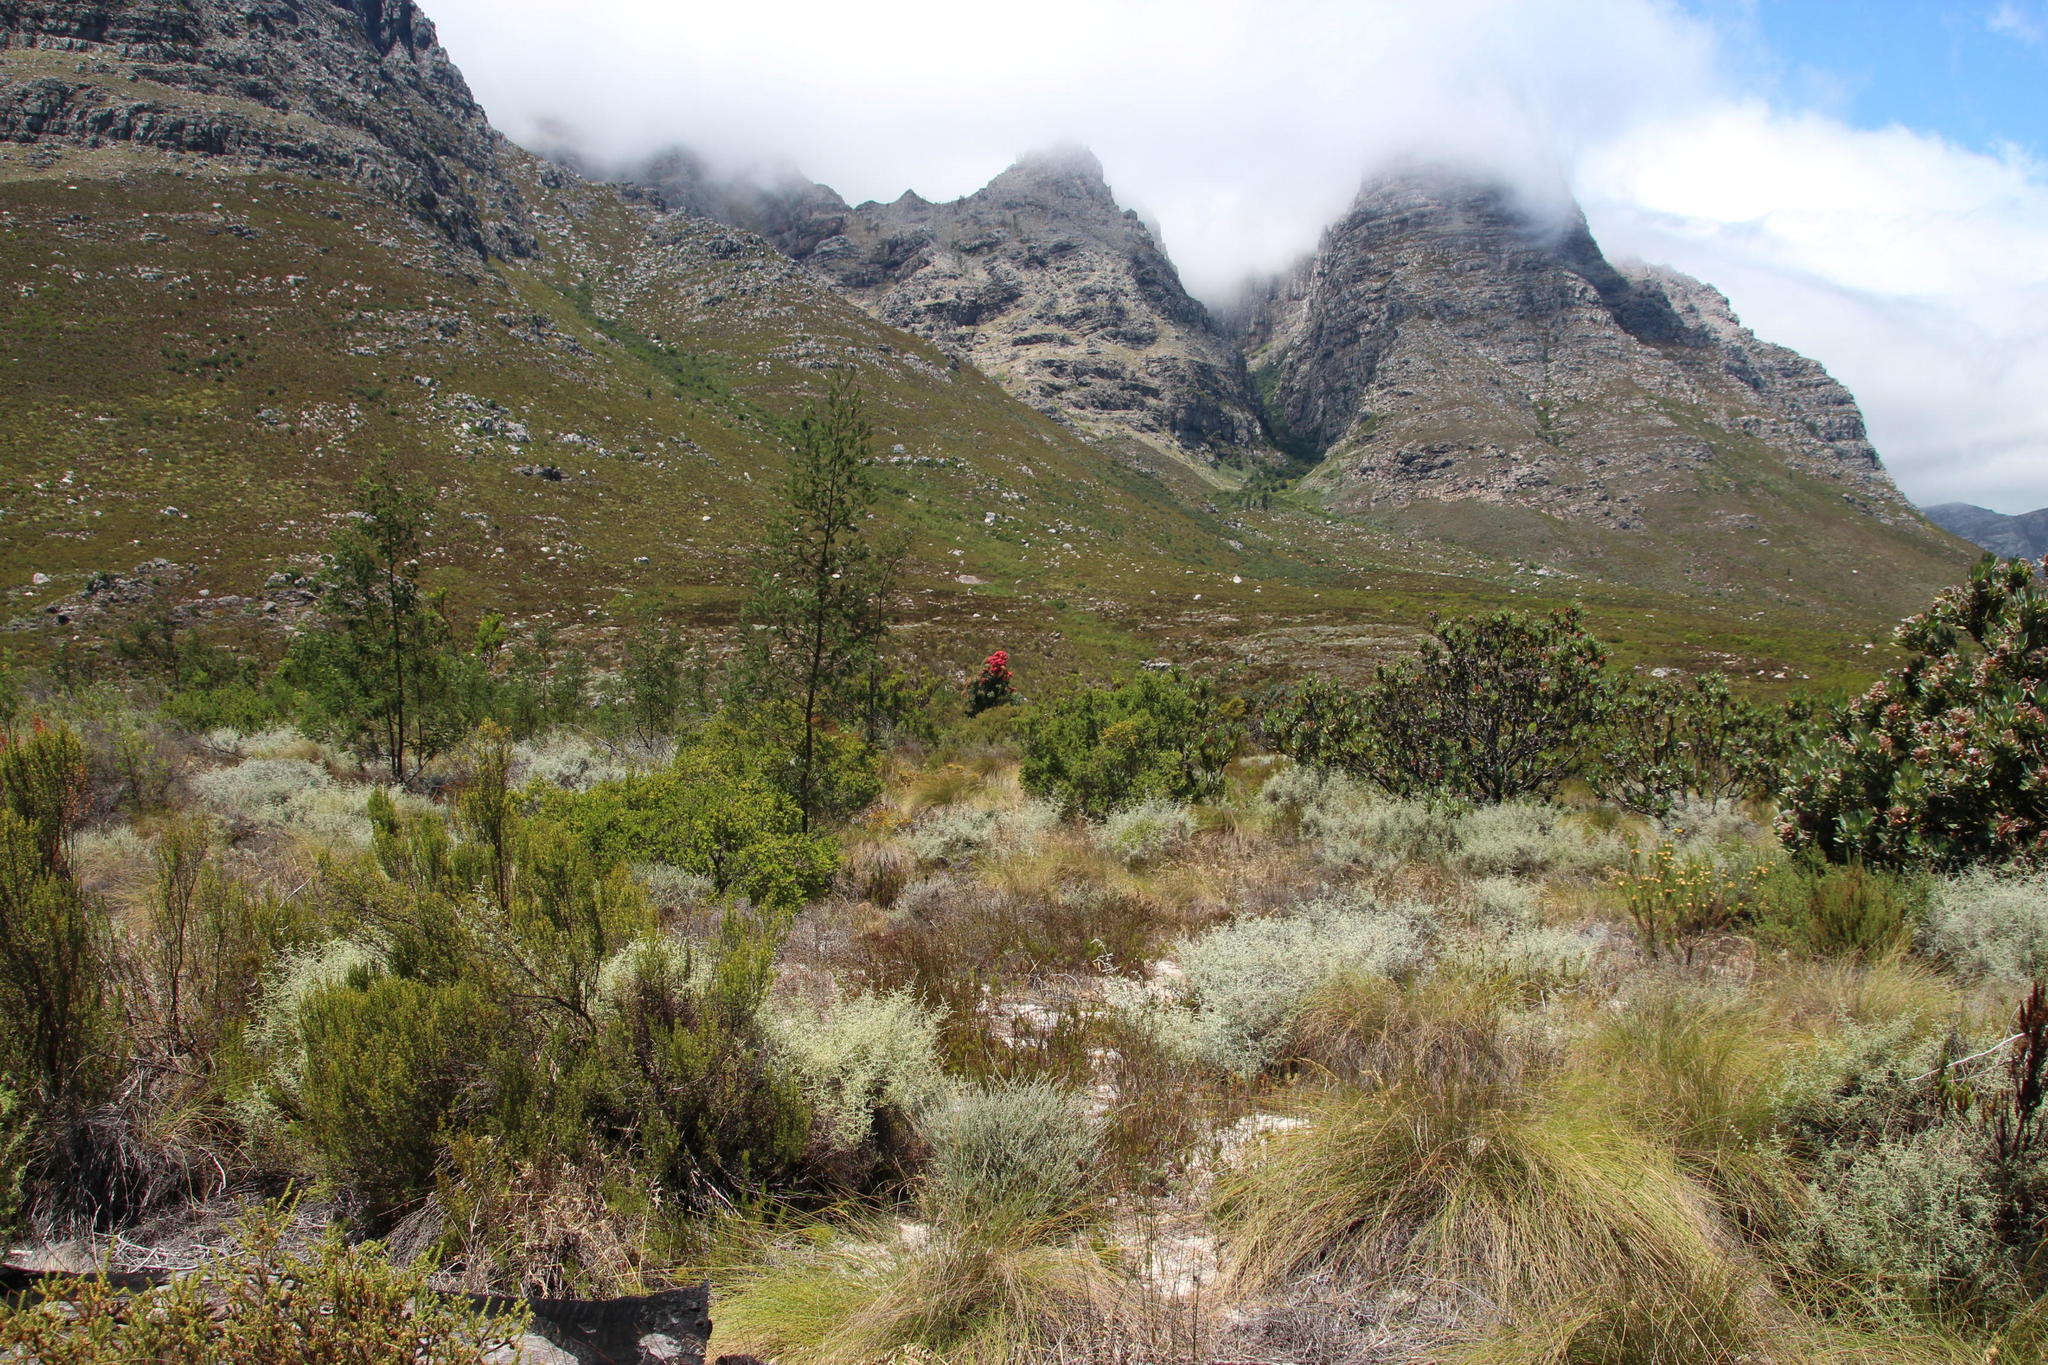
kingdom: Plantae
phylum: Tracheophyta
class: Magnoliopsida
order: Fabales
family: Fabaceae
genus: Acacia
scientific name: Acacia mearnsii
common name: Black wattle
